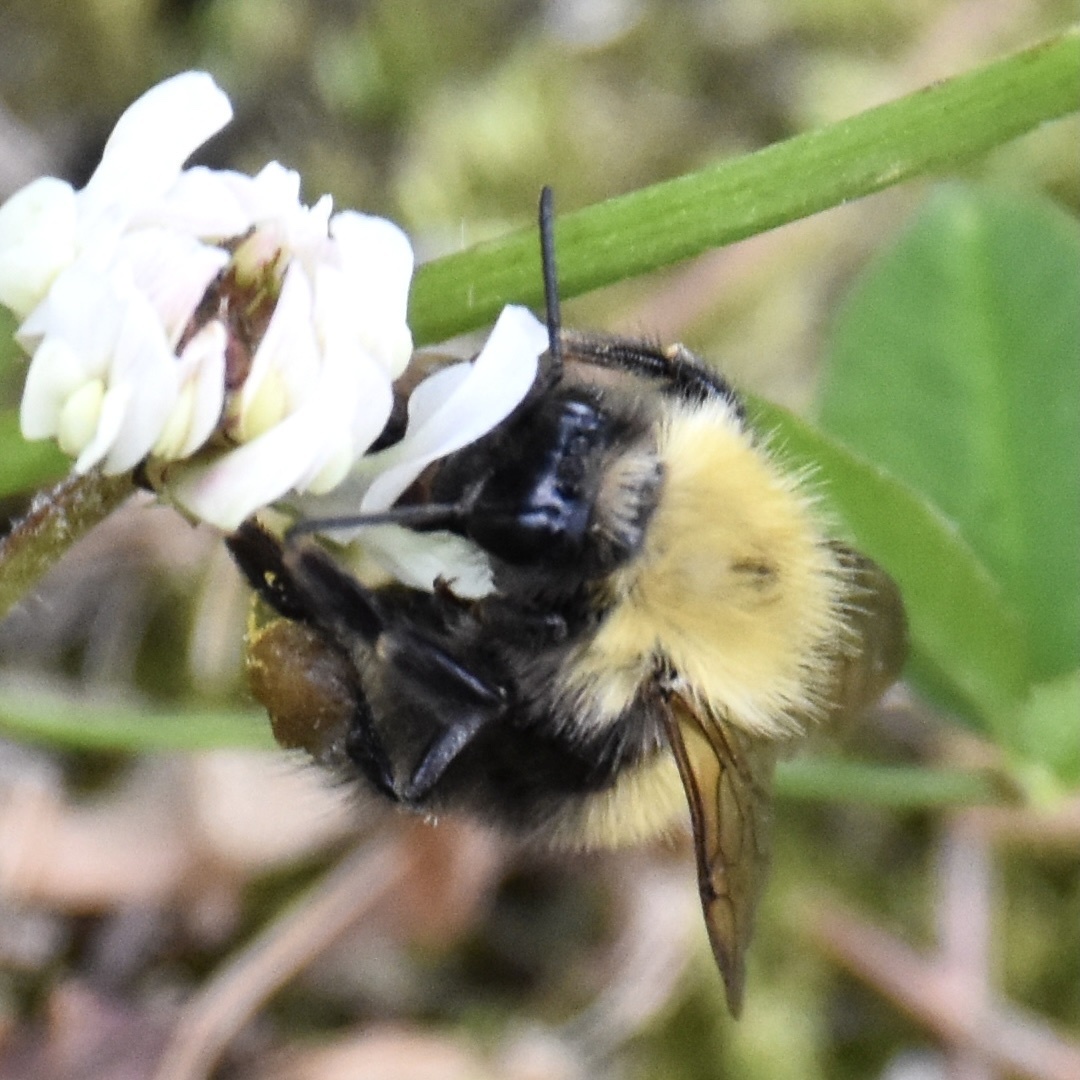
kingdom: Animalia
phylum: Arthropoda
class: Insecta
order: Hymenoptera
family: Apidae
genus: Bombus
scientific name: Bombus perplexus
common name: Confusing bumble bee
